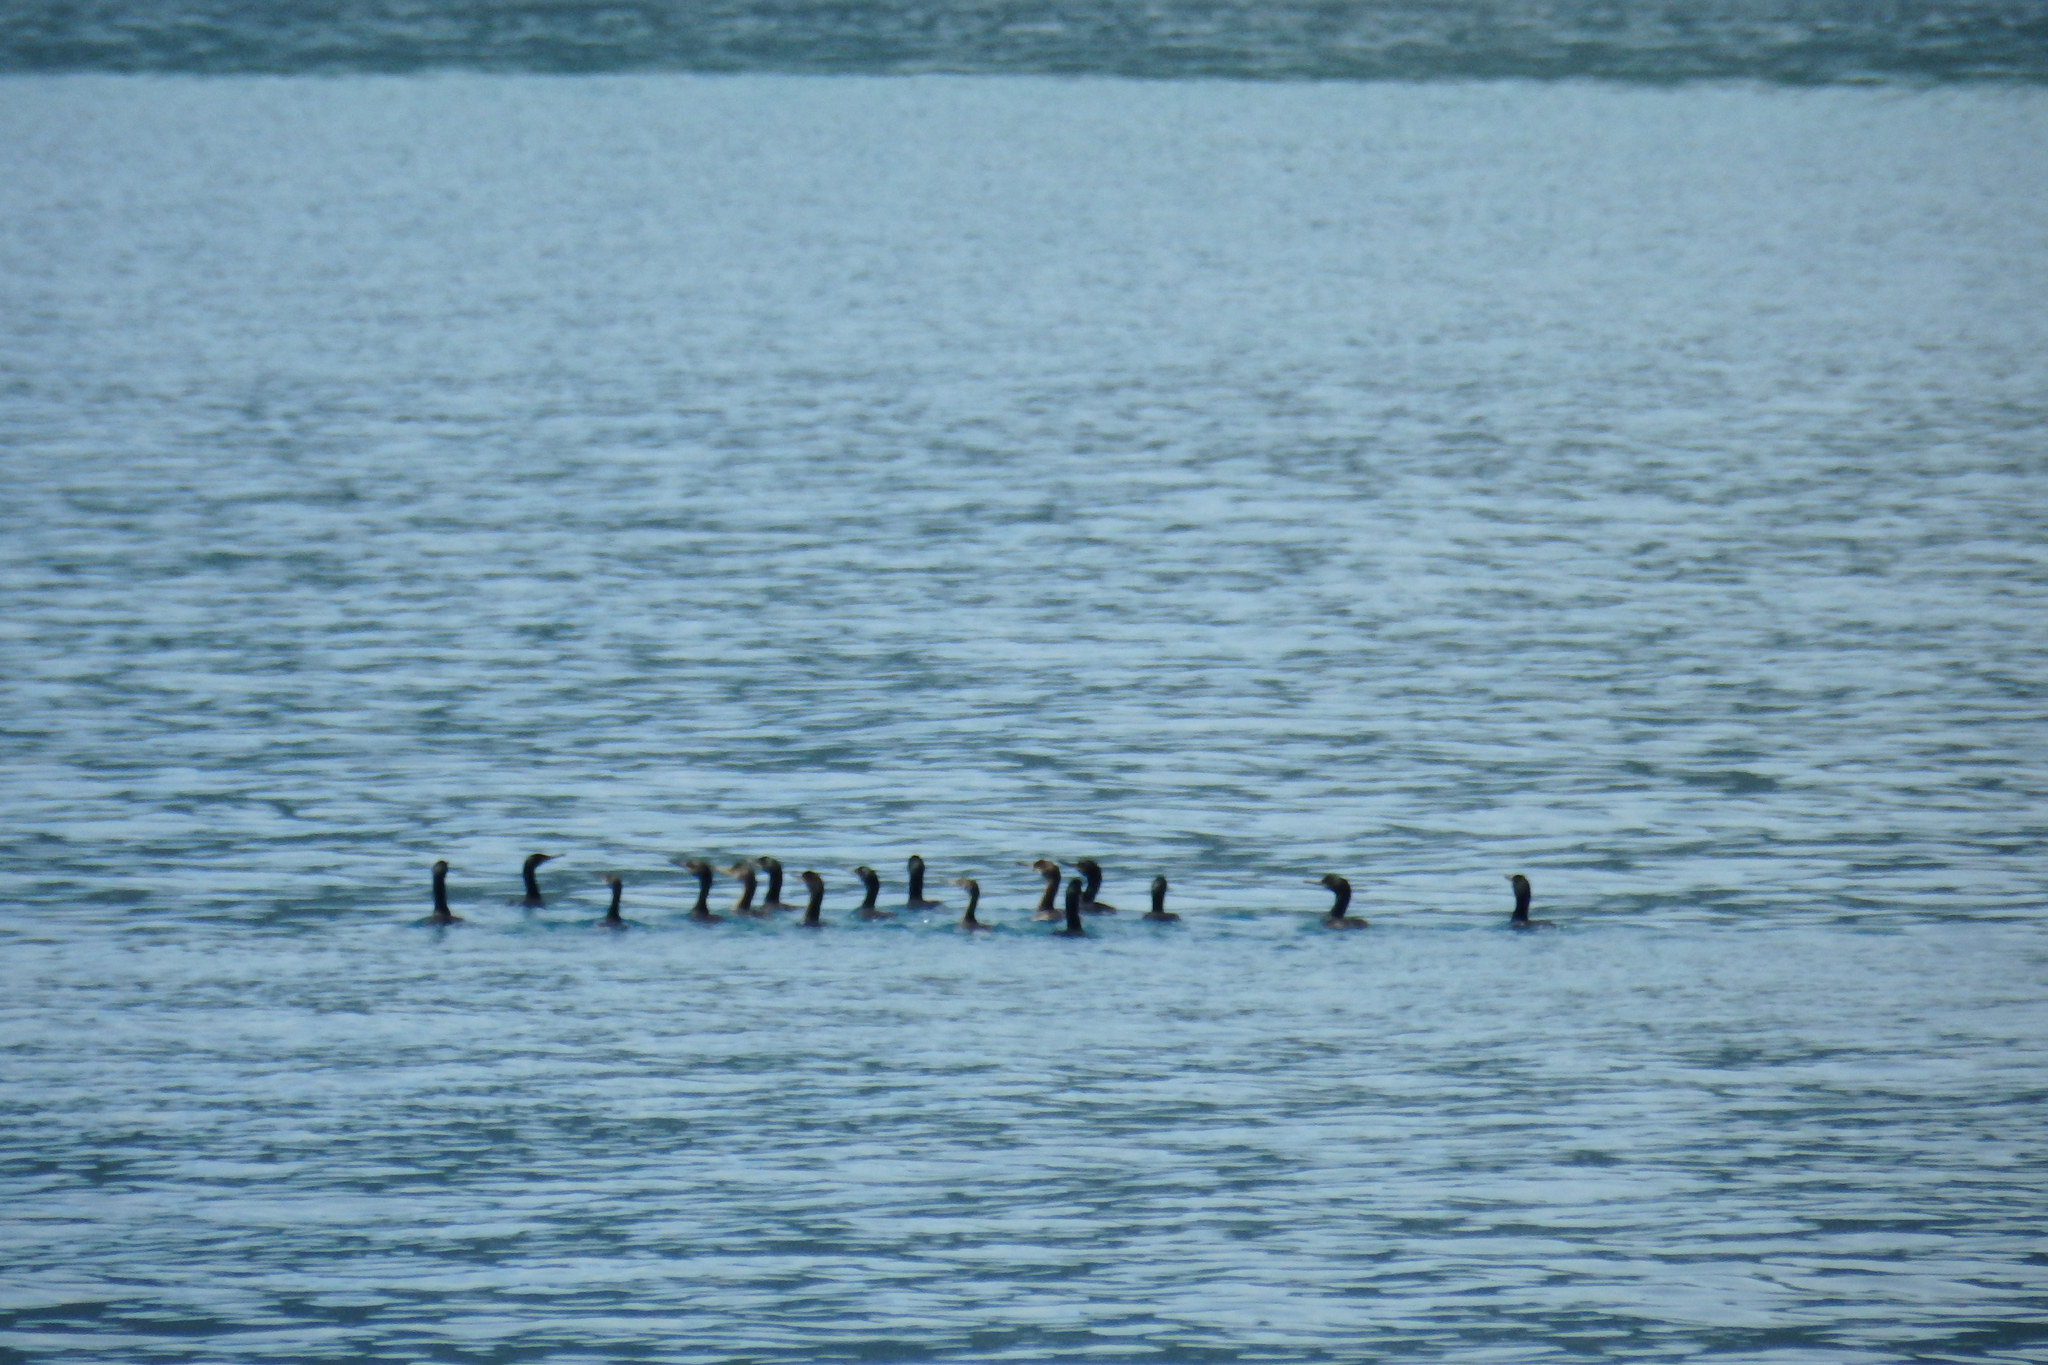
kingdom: Animalia
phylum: Chordata
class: Aves
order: Suliformes
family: Phalacrocoracidae
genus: Phalacrocorax
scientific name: Phalacrocorax aristotelis
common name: European shag
